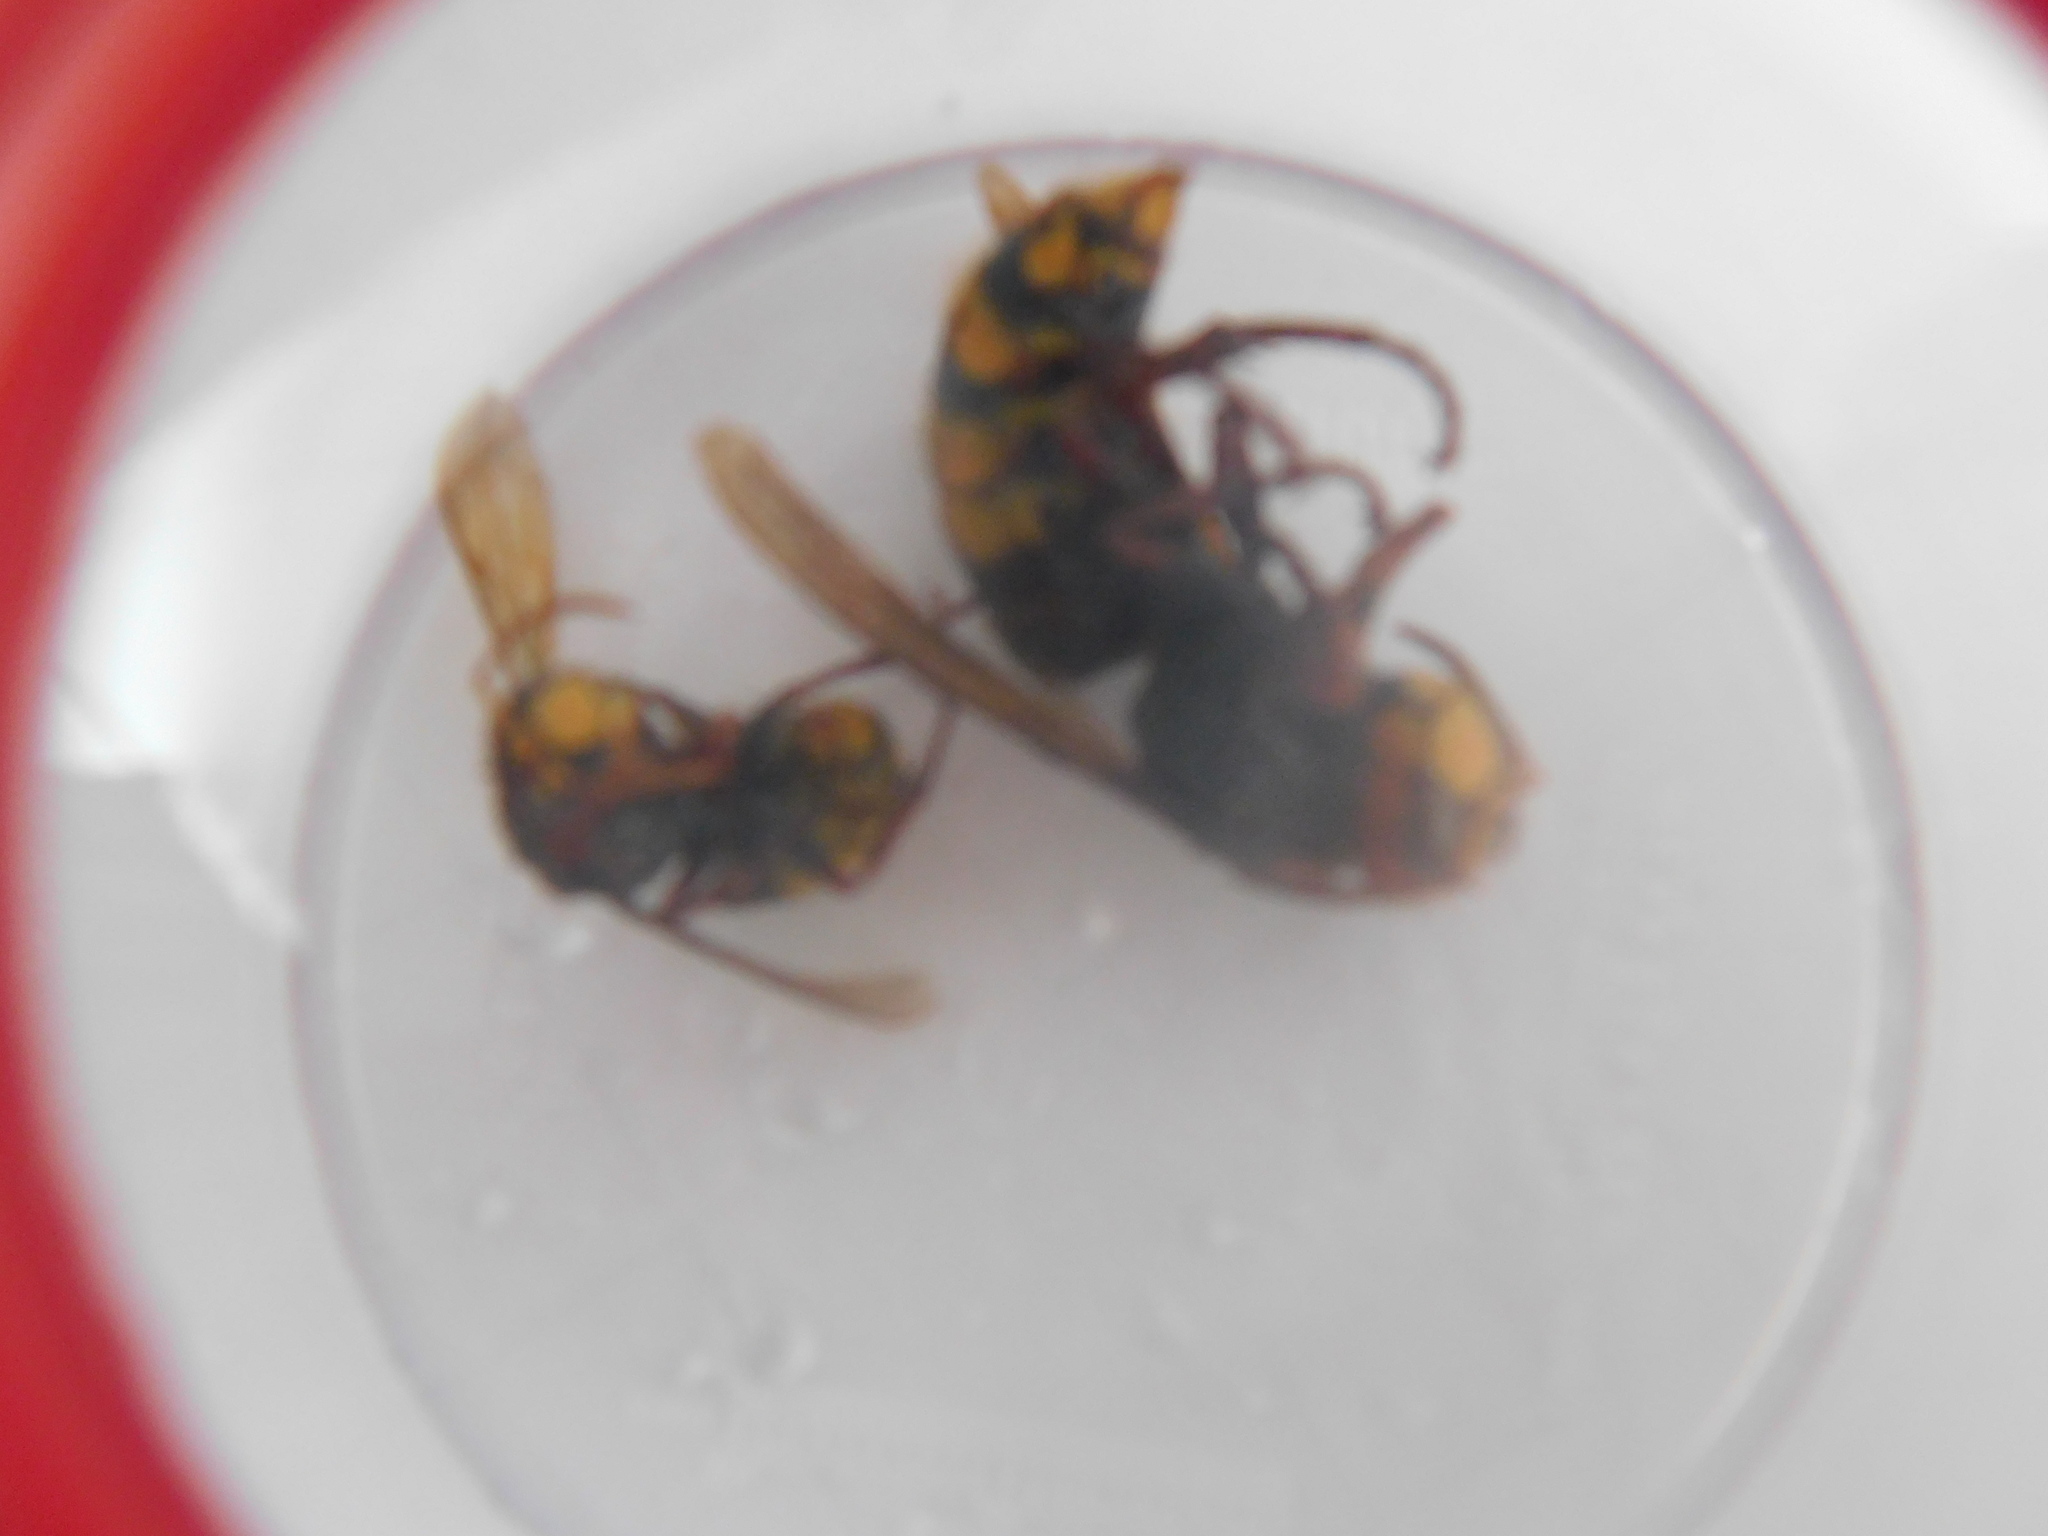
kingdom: Animalia
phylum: Arthropoda
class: Insecta
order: Hymenoptera
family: Vespidae
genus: Vespa
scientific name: Vespa crabro
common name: Hornet
